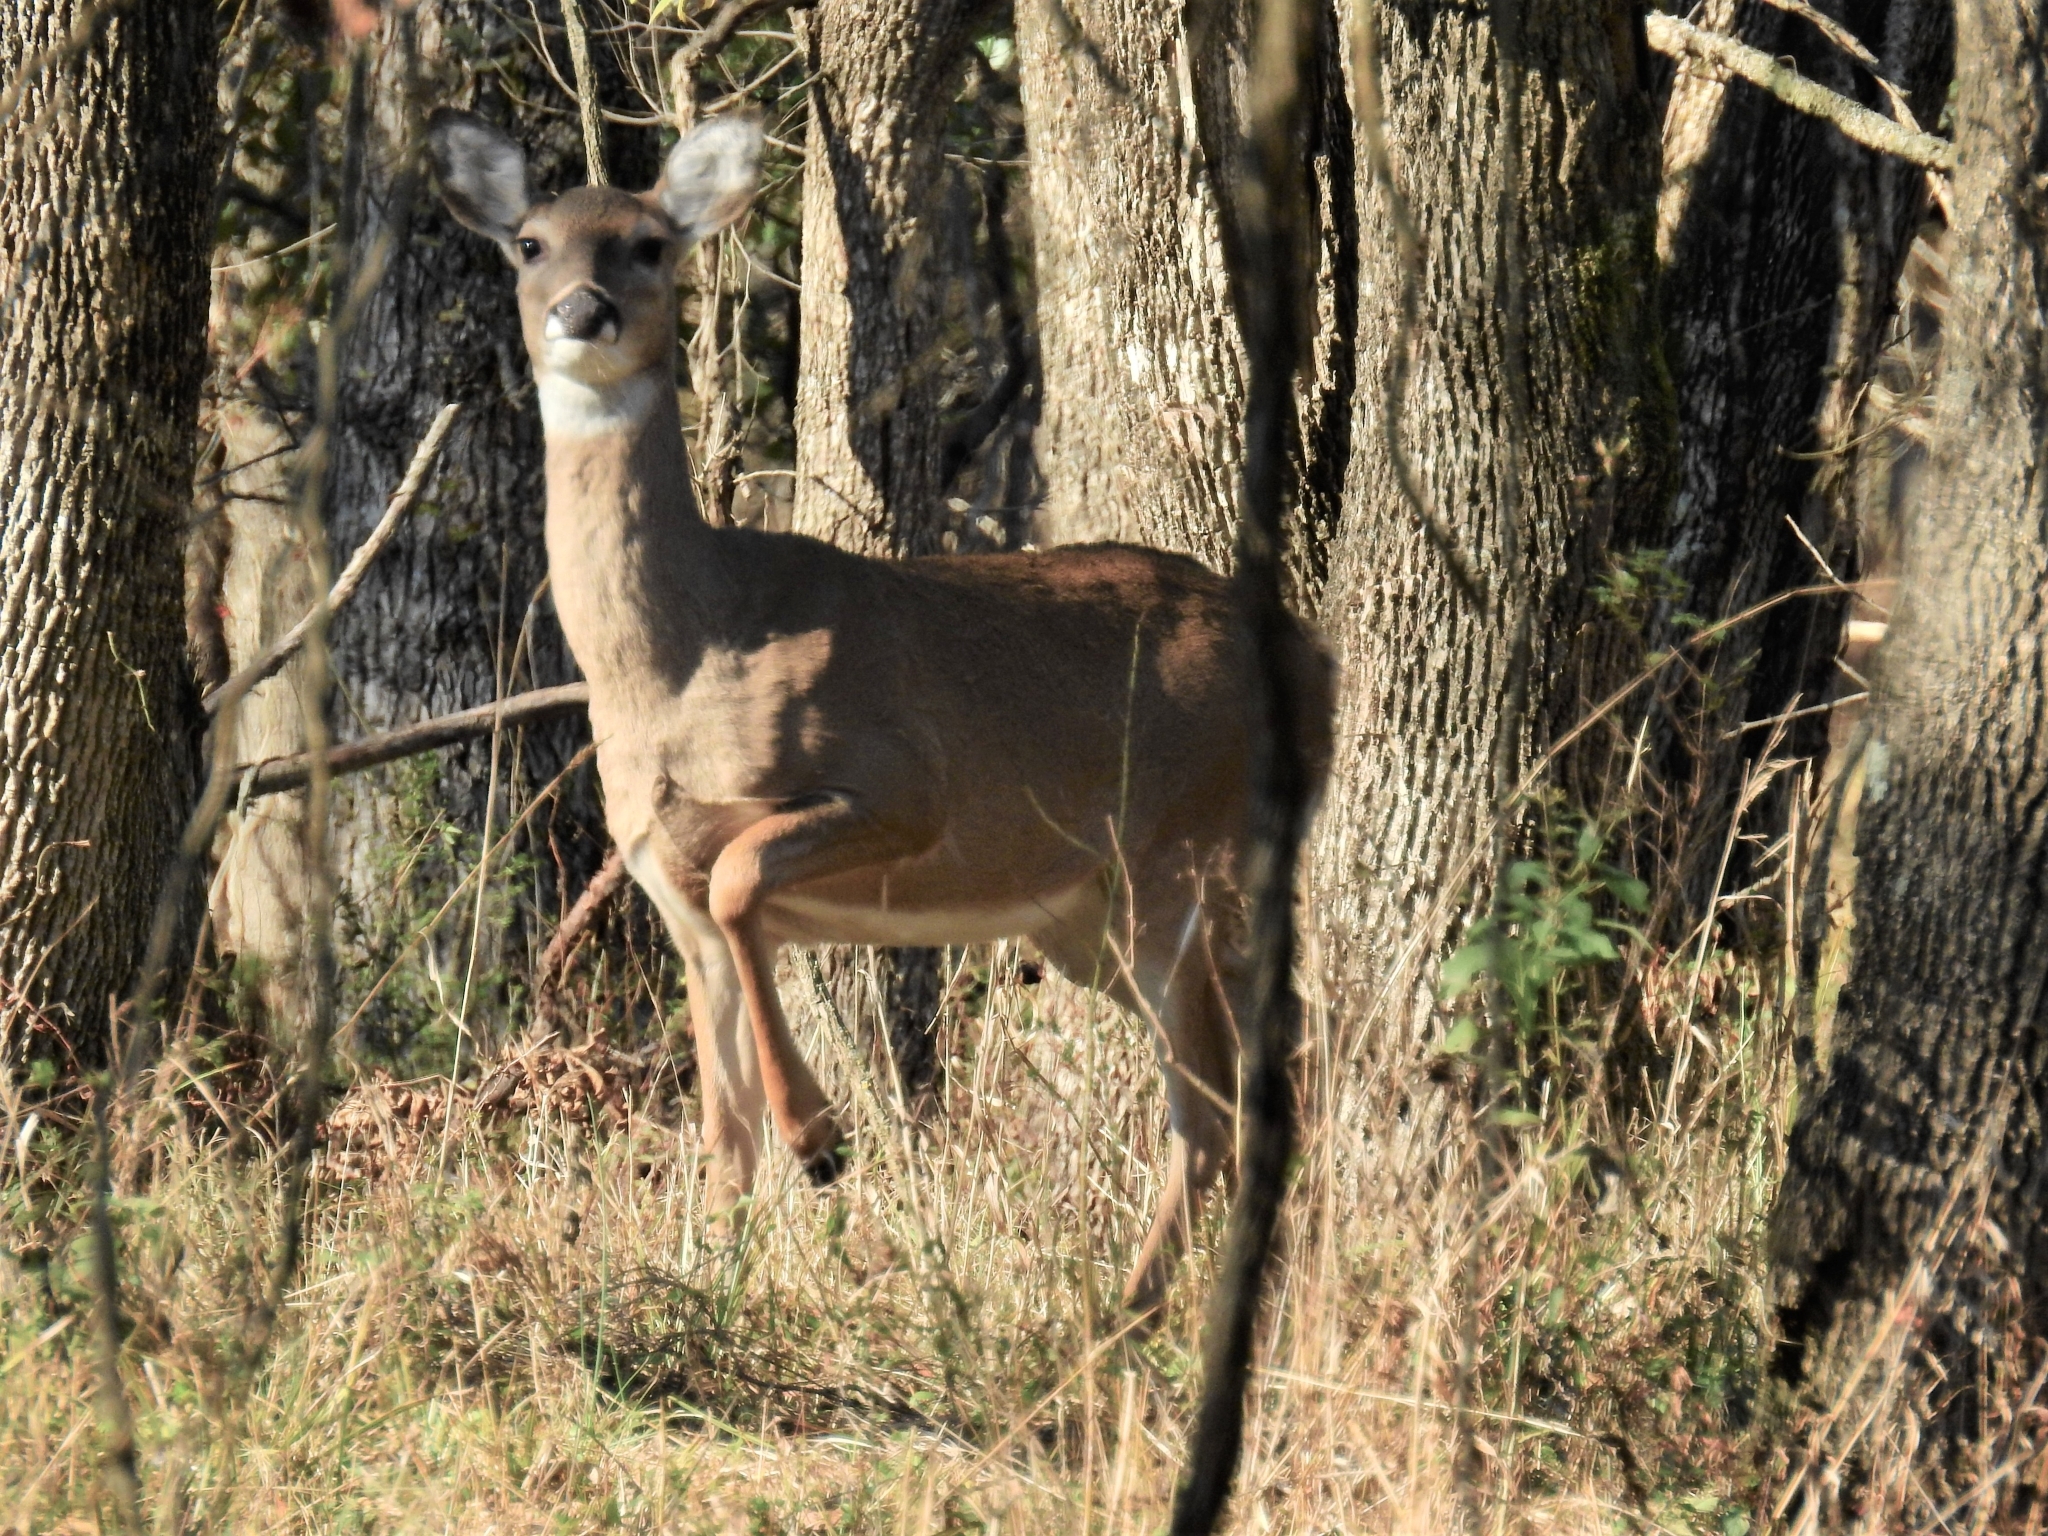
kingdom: Animalia
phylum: Chordata
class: Mammalia
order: Artiodactyla
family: Cervidae
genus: Odocoileus
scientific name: Odocoileus virginianus
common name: White-tailed deer
